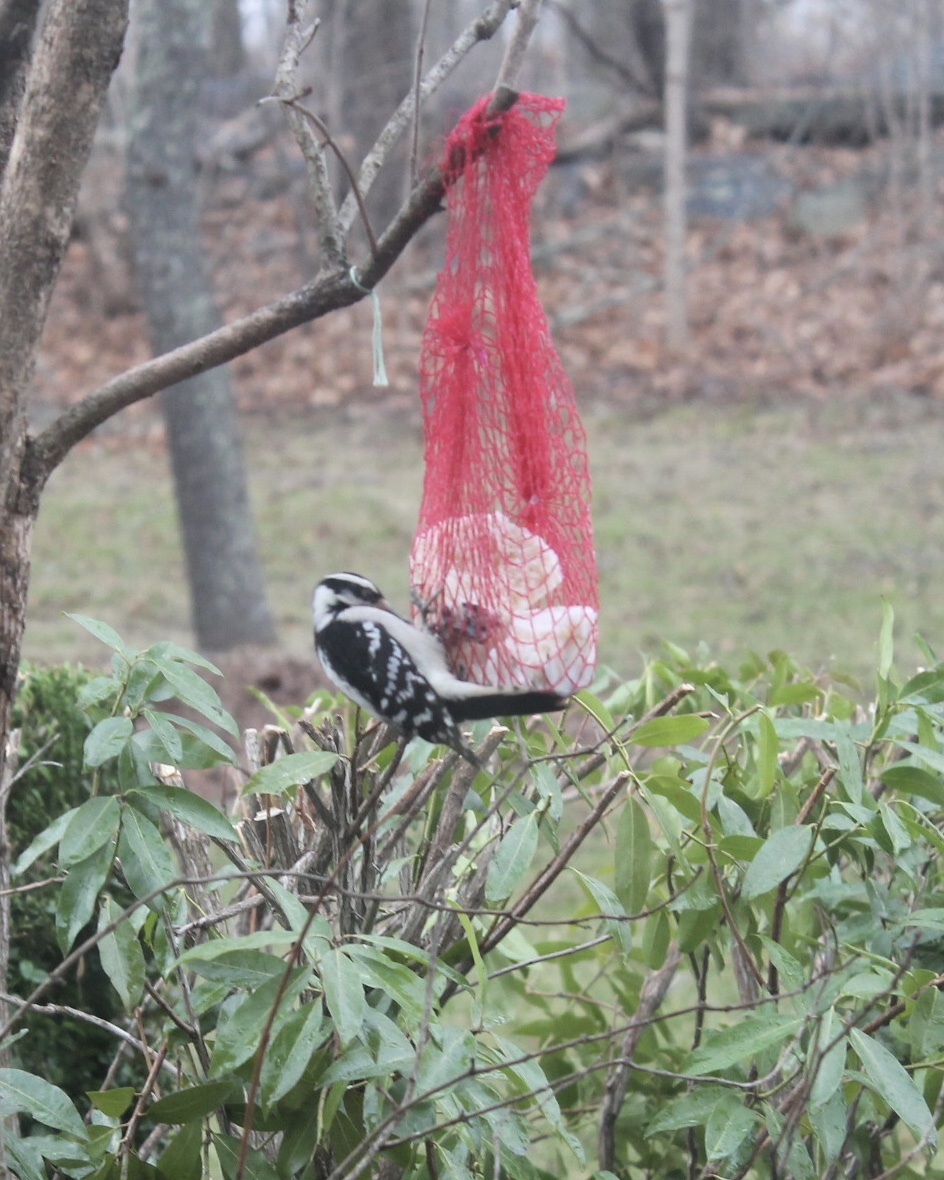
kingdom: Animalia
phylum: Chordata
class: Aves
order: Piciformes
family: Picidae
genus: Dryobates
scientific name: Dryobates pubescens
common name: Downy woodpecker
